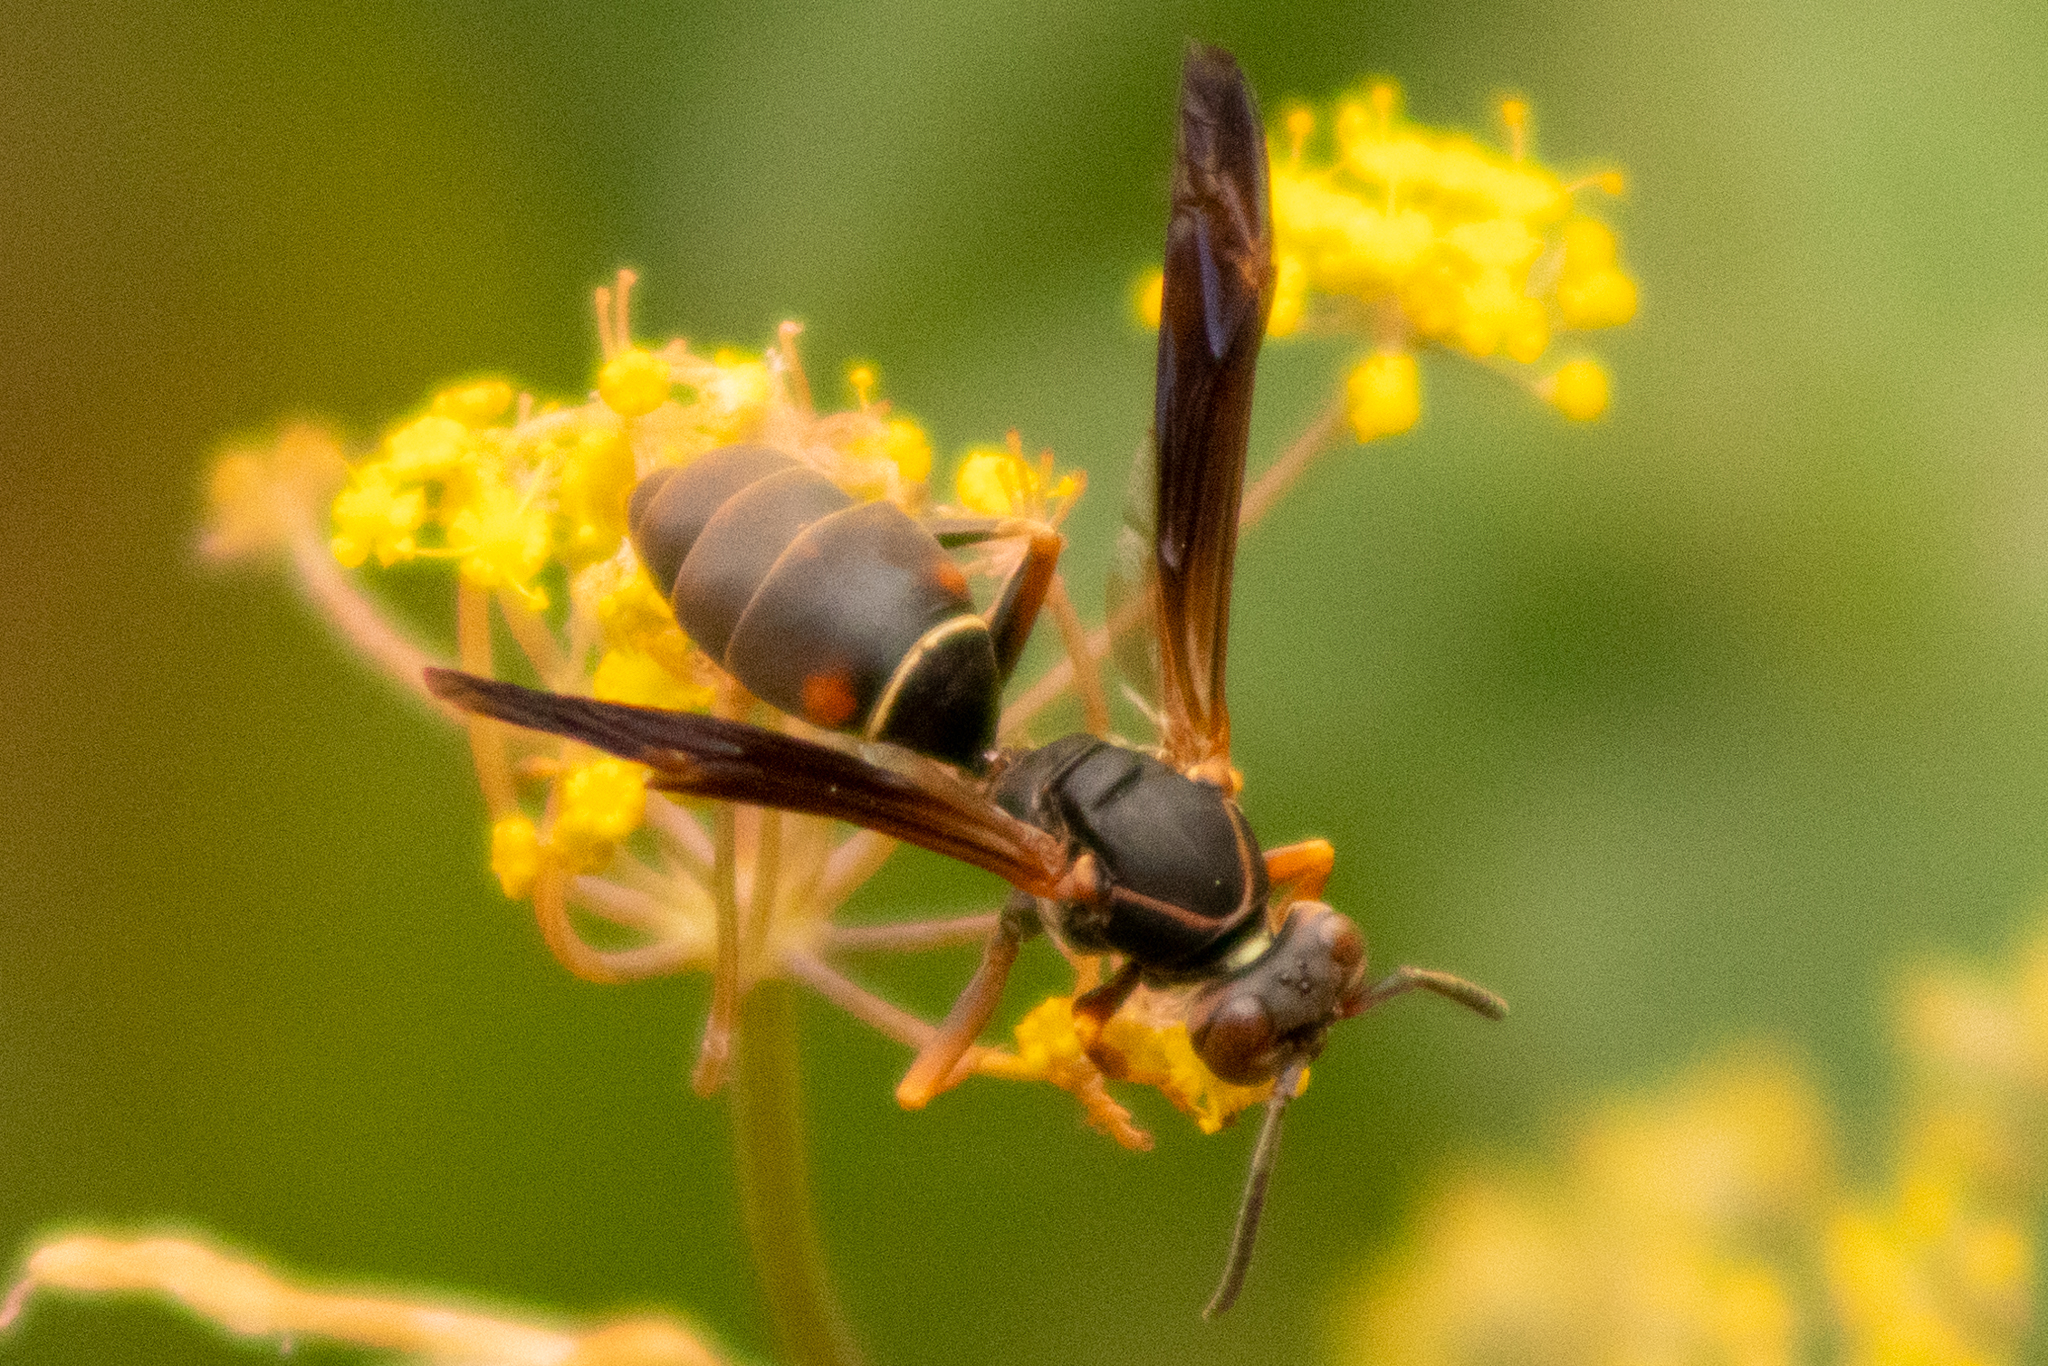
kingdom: Animalia
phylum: Arthropoda
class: Insecta
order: Hymenoptera
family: Eumenidae
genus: Polistes
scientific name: Polistes fuscatus
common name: Dark paper wasp
